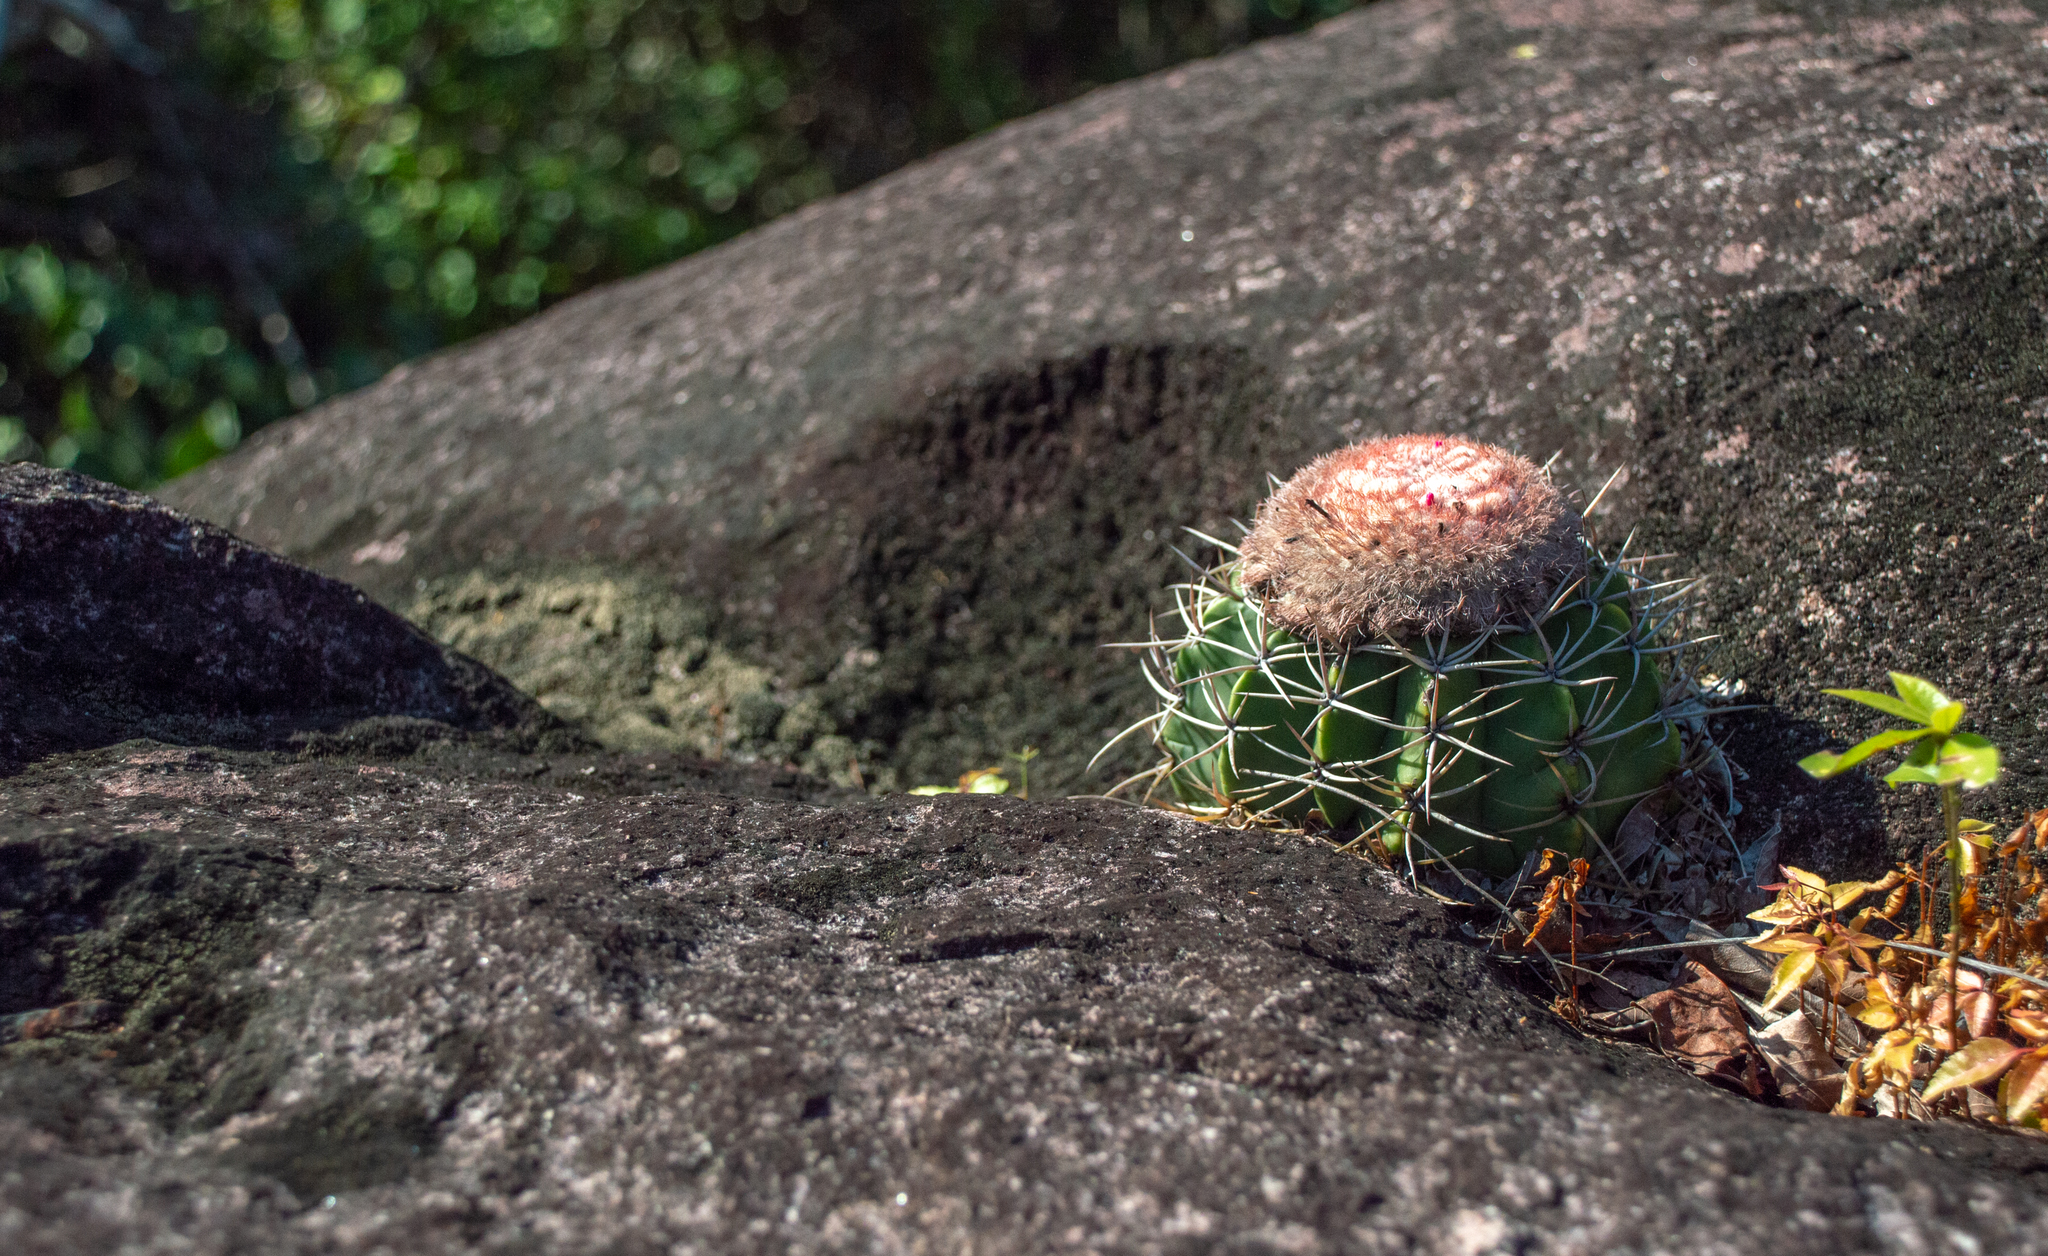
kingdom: Plantae
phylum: Tracheophyta
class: Magnoliopsida
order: Caryophyllales
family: Cactaceae
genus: Melocactus
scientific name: Melocactus neryi
